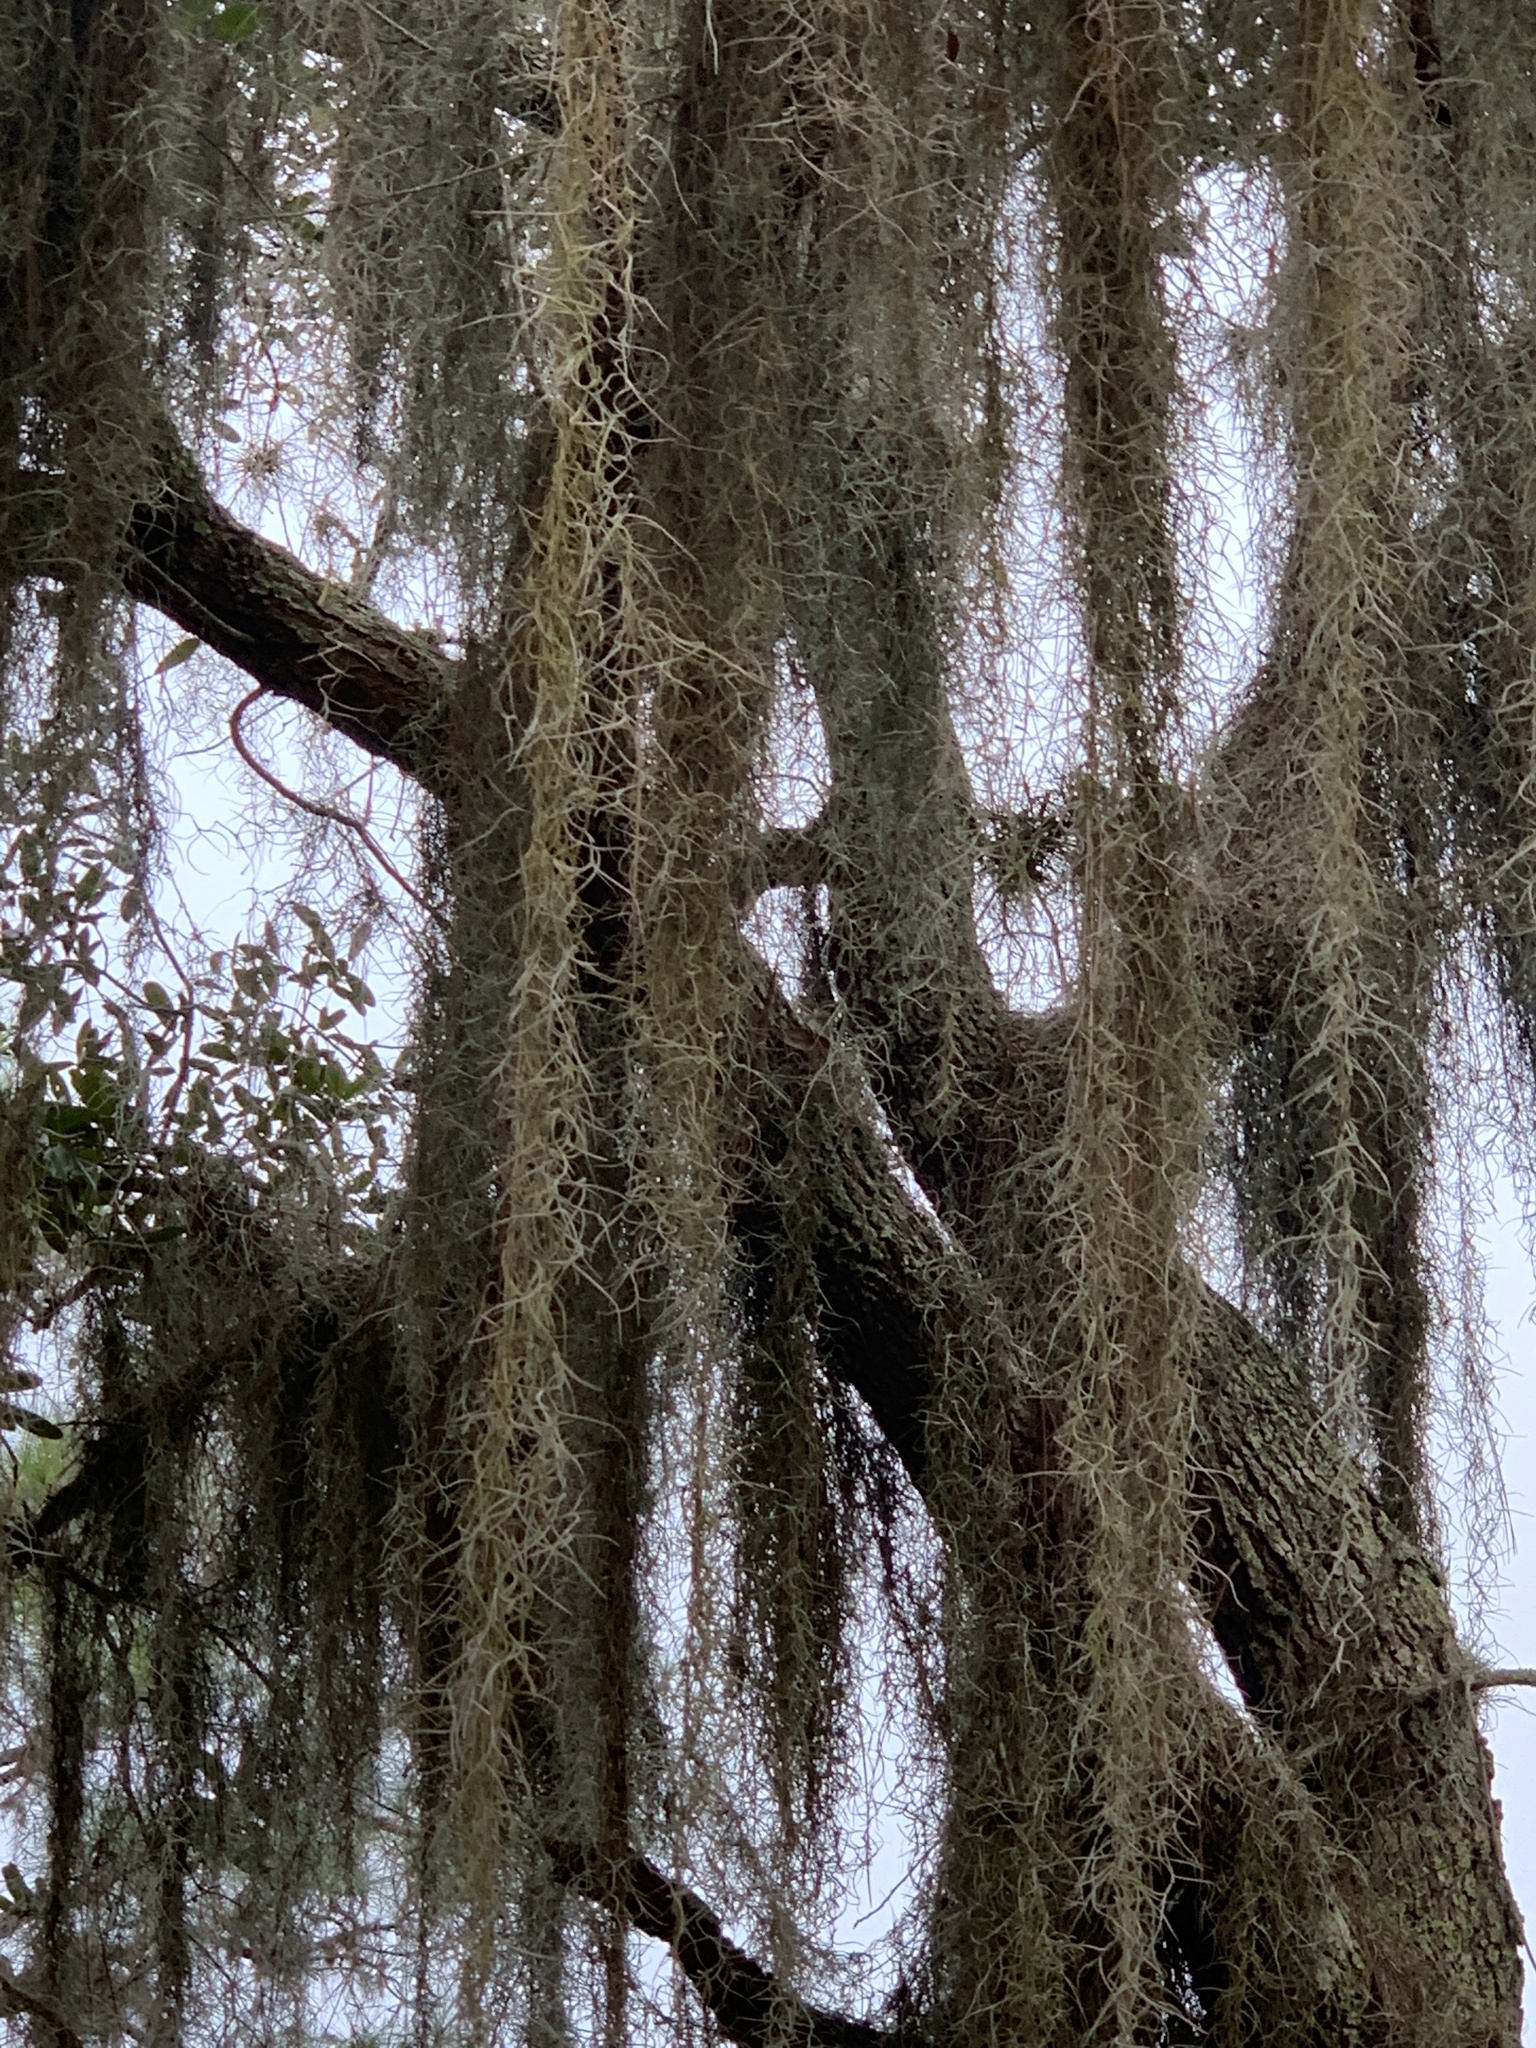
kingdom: Plantae
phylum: Tracheophyta
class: Liliopsida
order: Poales
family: Bromeliaceae
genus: Tillandsia
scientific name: Tillandsia usneoides
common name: Spanish moss
